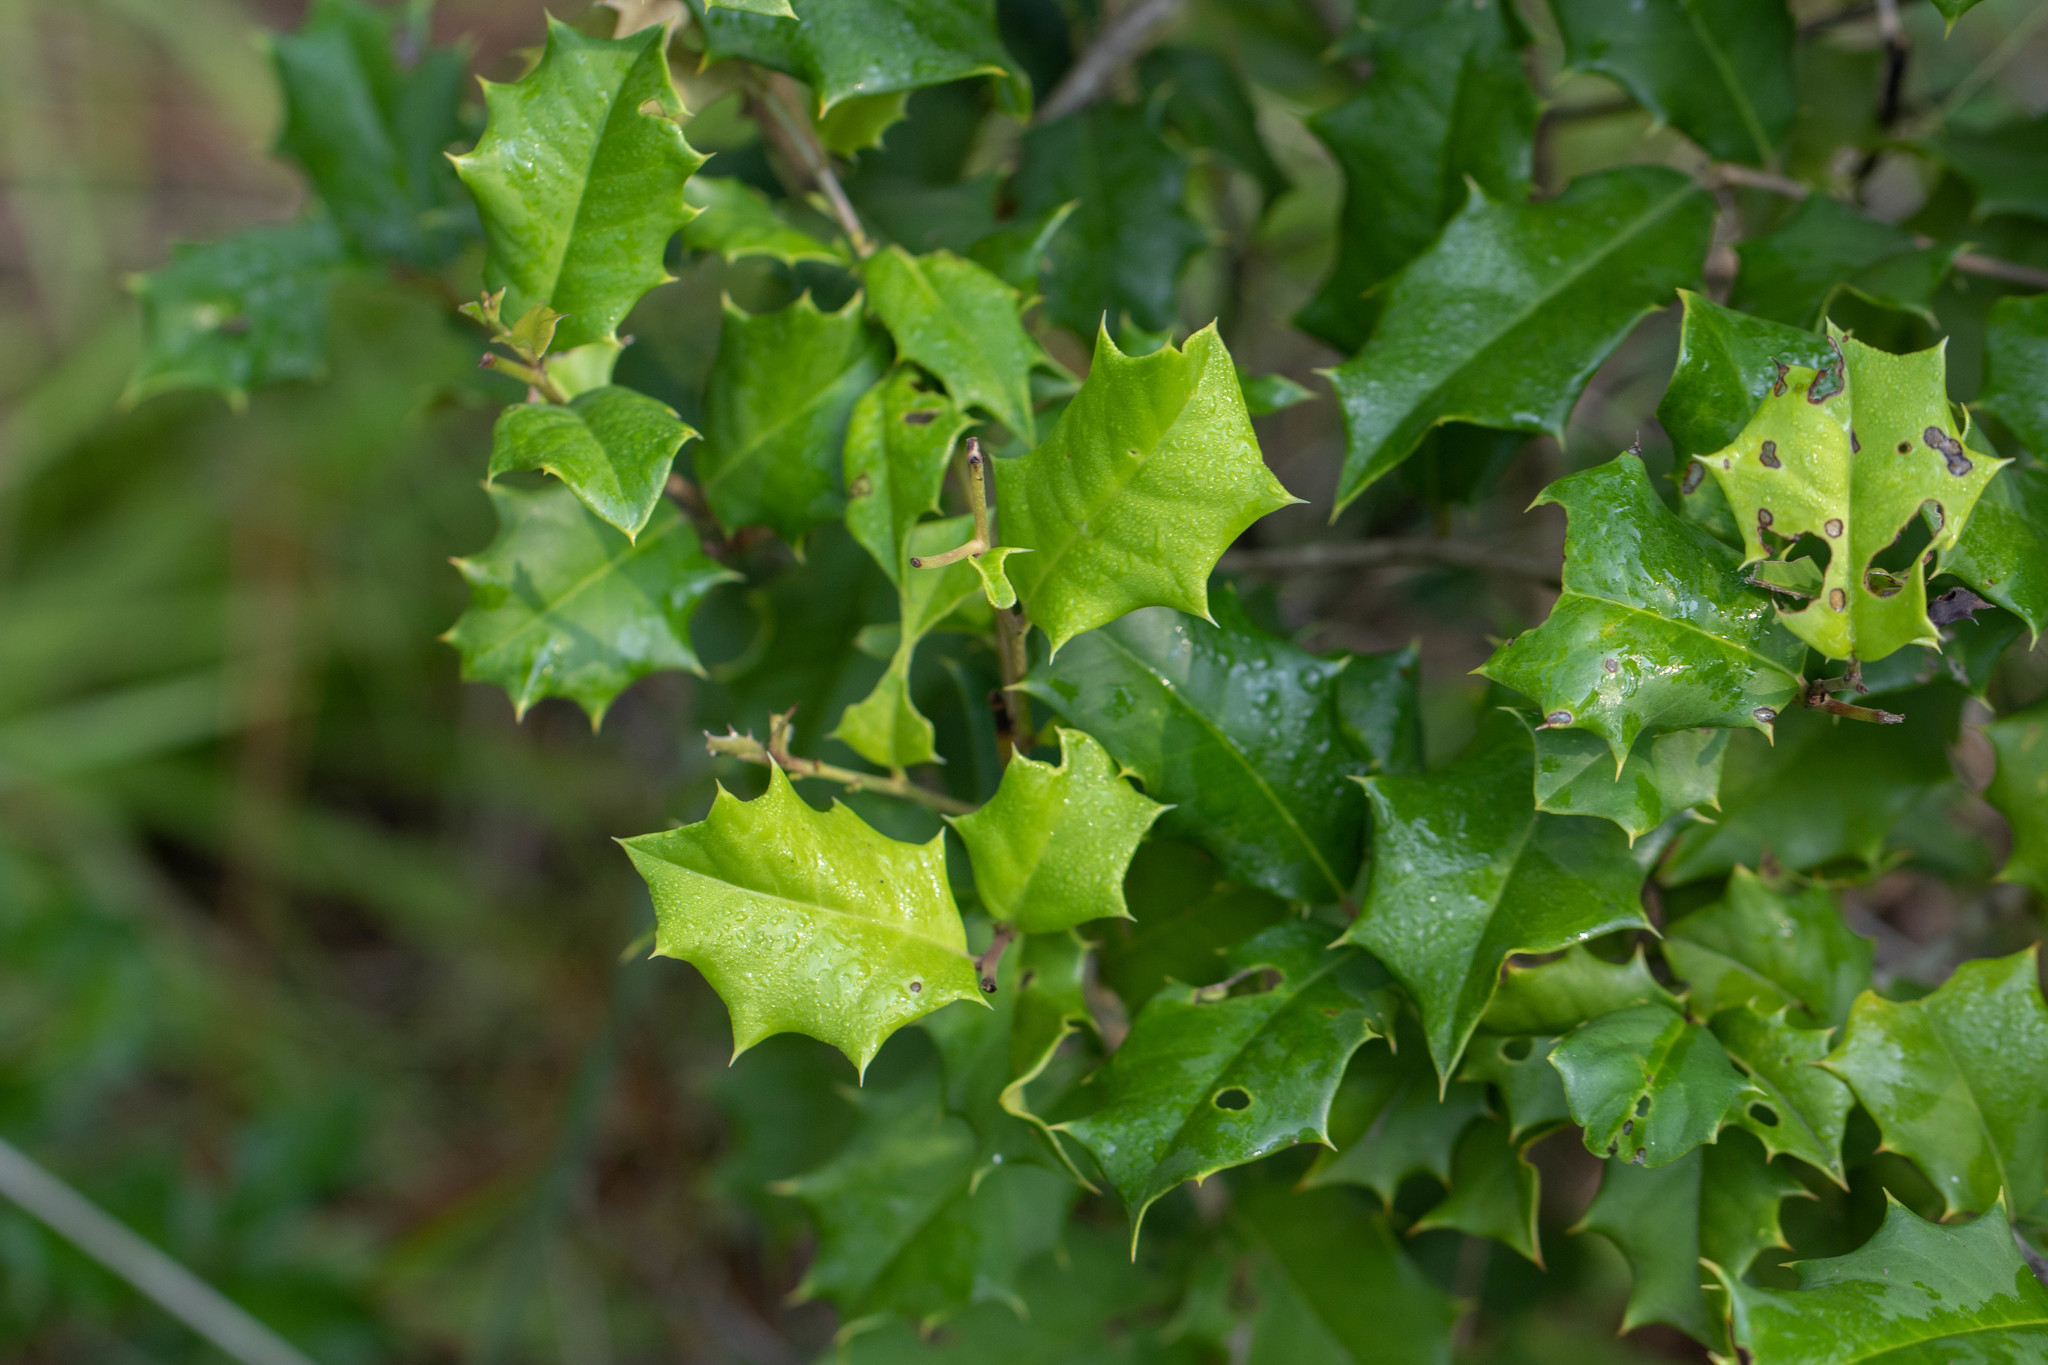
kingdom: Plantae
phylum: Tracheophyta
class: Magnoliopsida
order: Aquifoliales
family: Aquifoliaceae
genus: Ilex
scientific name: Ilex opaca
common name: American holly
